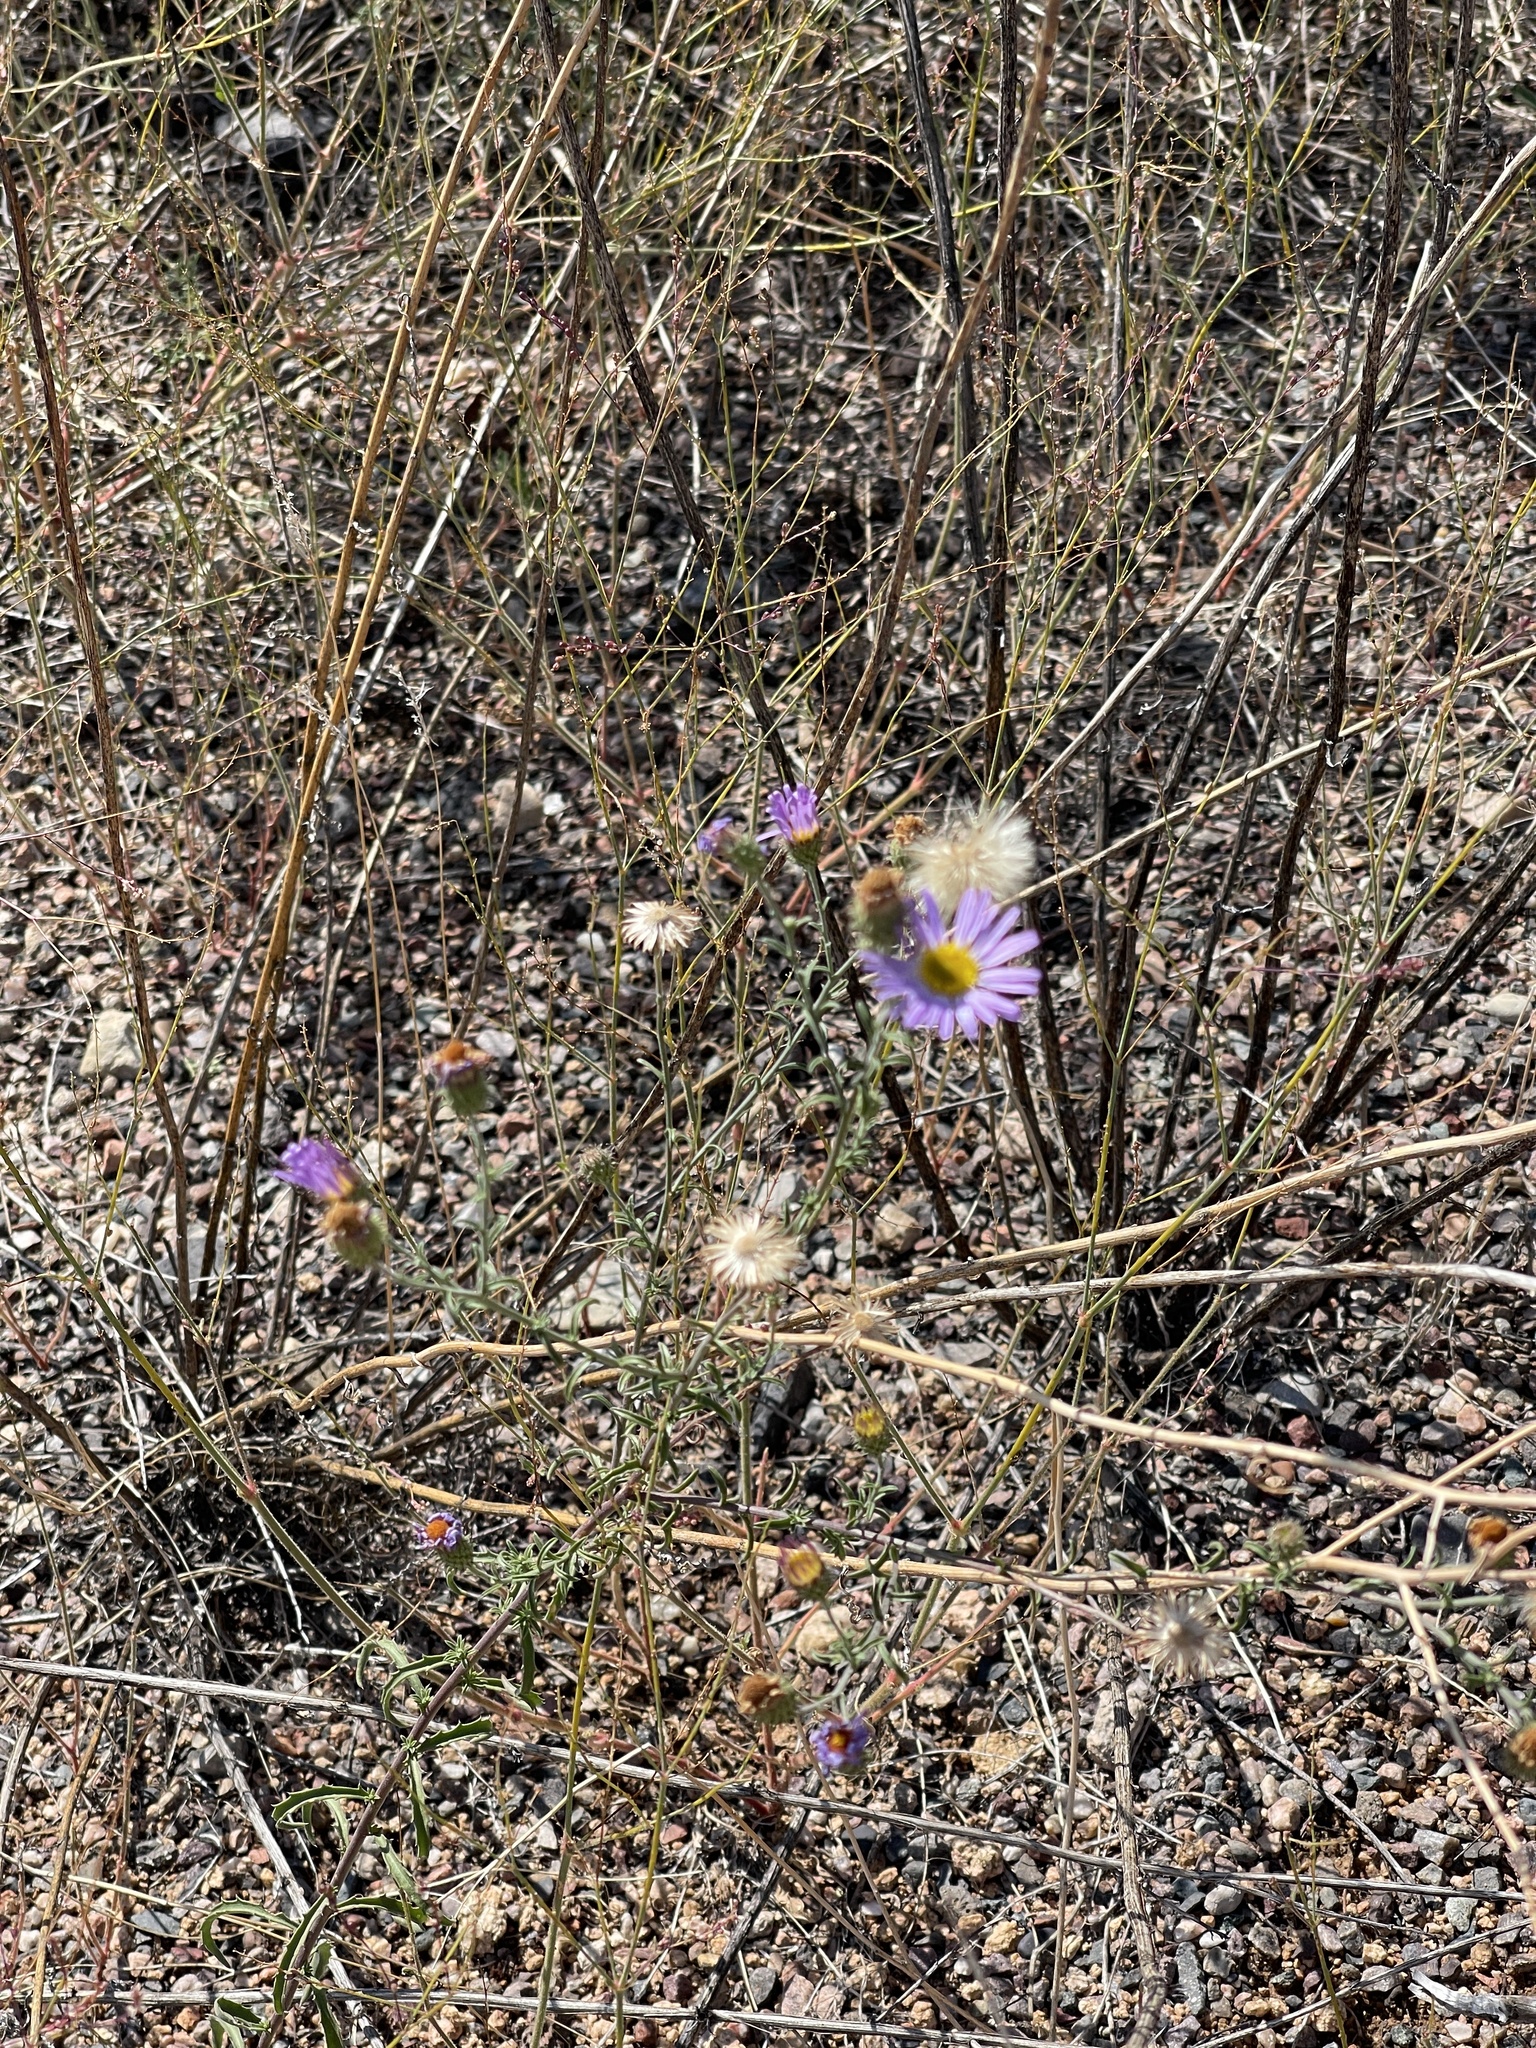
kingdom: Plantae
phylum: Tracheophyta
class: Magnoliopsida
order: Asterales
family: Asteraceae
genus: Dieteria
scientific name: Dieteria canescens
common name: Hoary-aster
